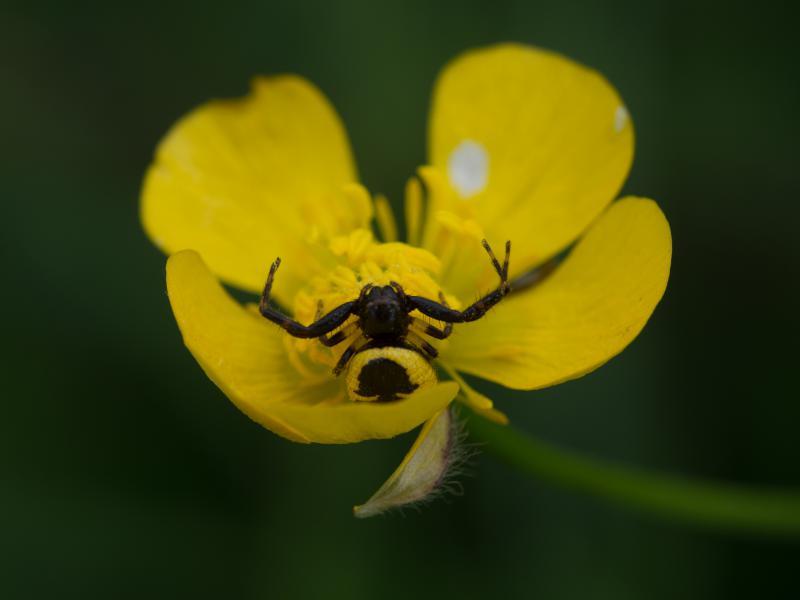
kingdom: Animalia
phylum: Arthropoda
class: Arachnida
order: Araneae
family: Thomisidae
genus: Synema
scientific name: Synema globosum
